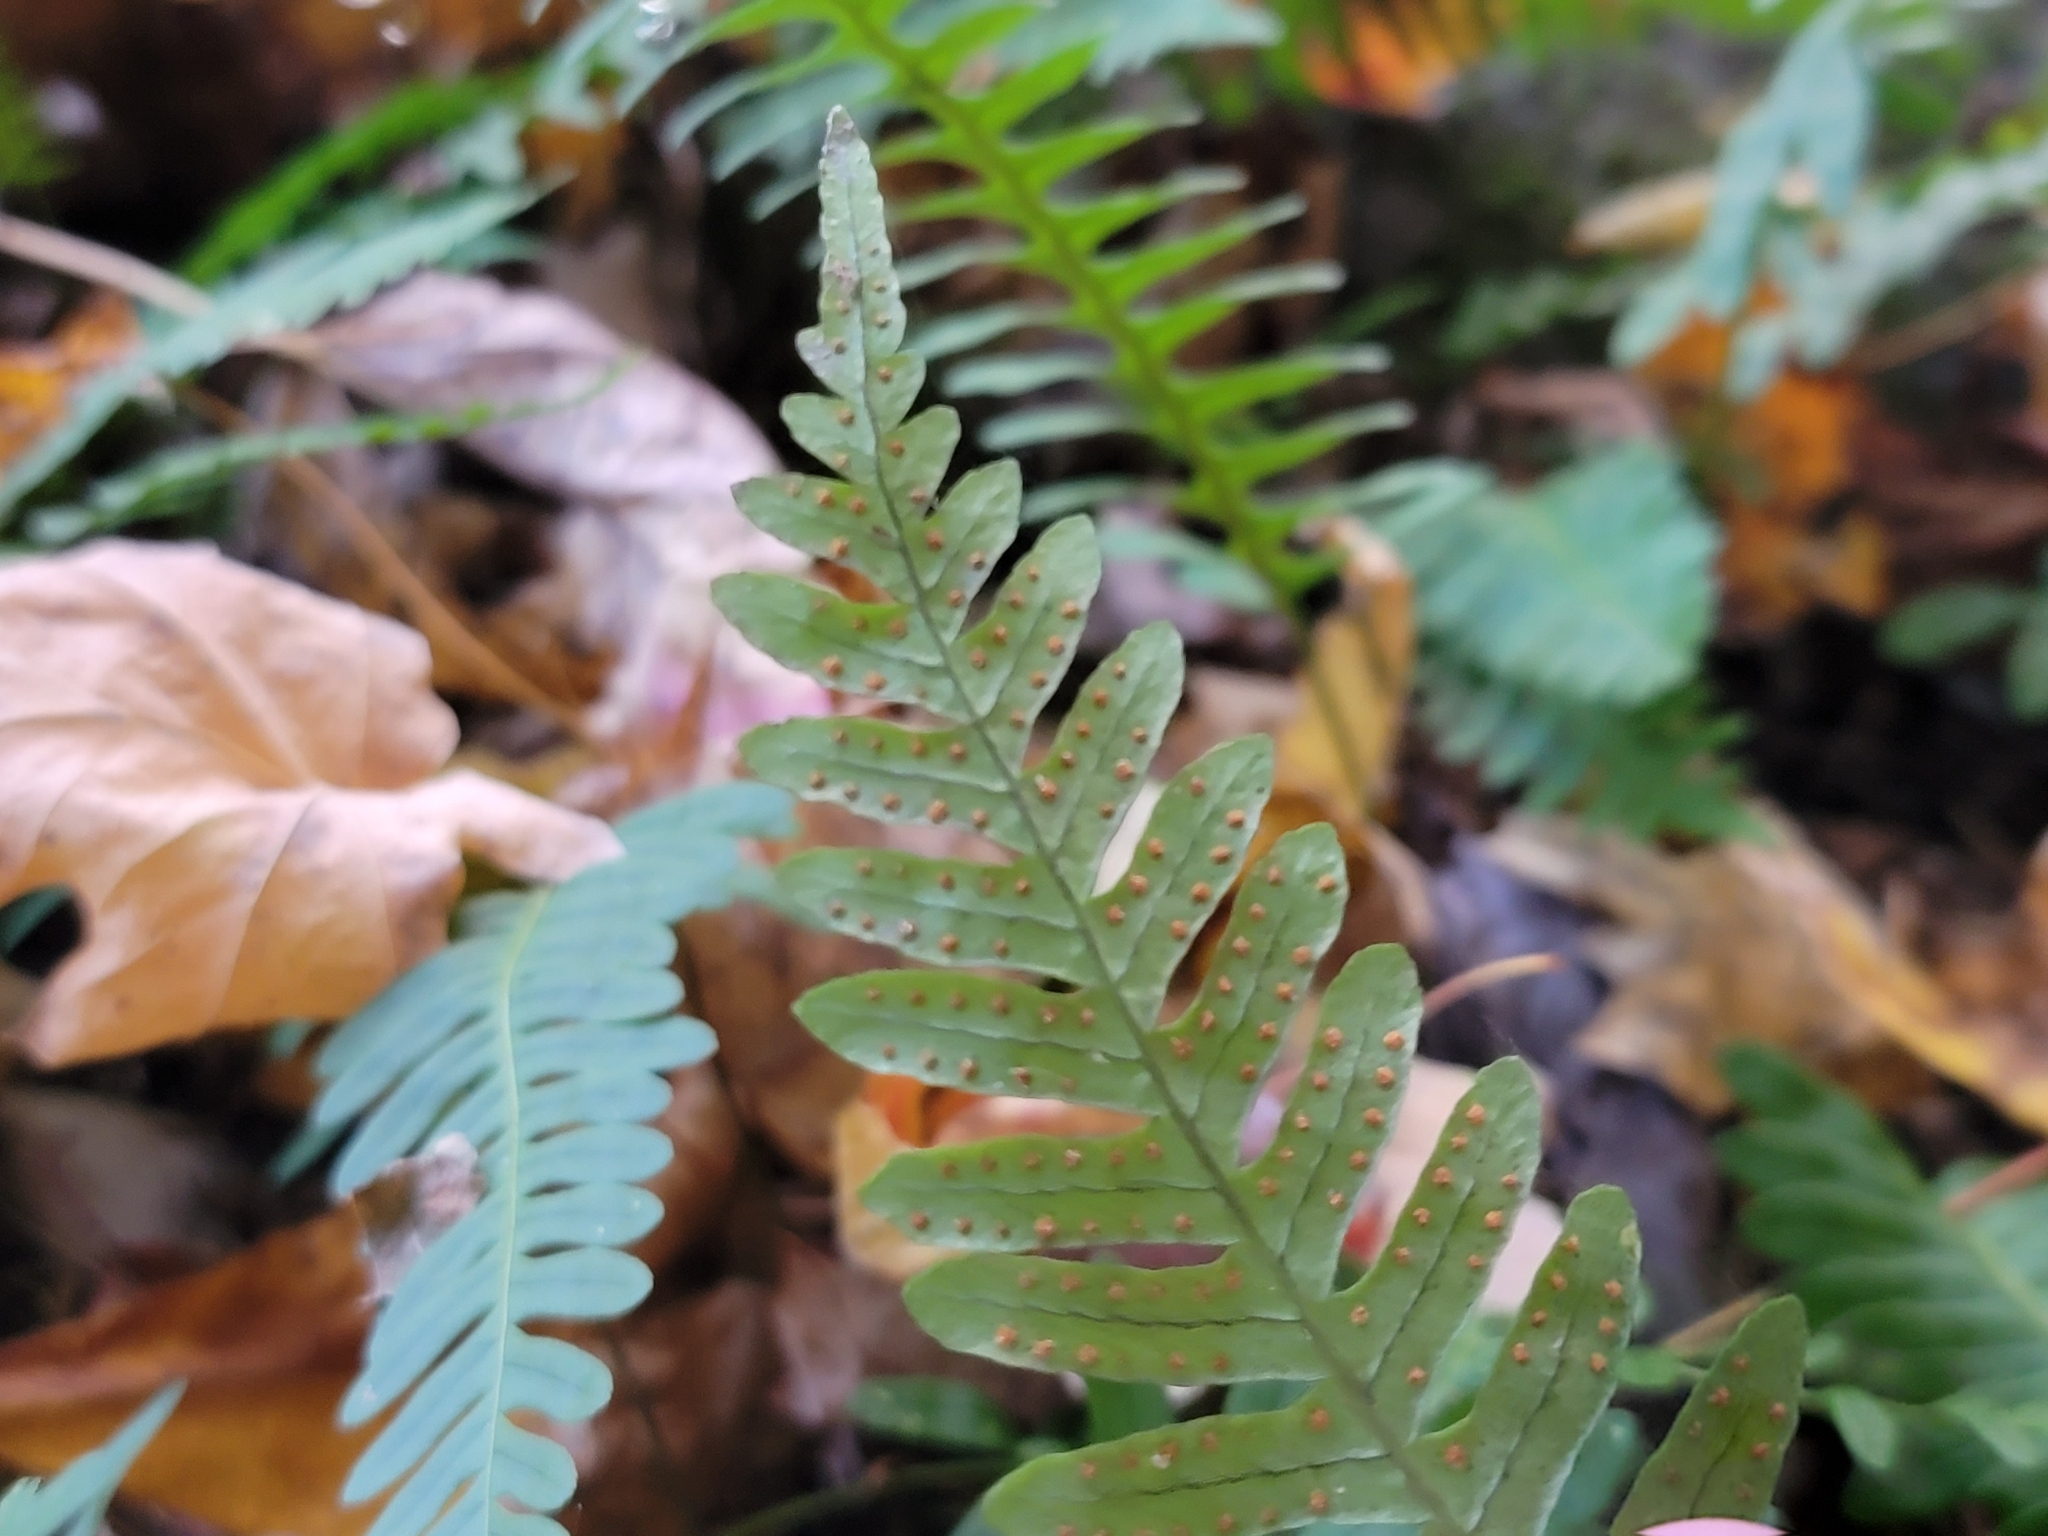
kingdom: Plantae
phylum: Tracheophyta
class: Polypodiopsida
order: Polypodiales
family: Polypodiaceae
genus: Polypodium
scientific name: Polypodium virginianum
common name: American wall fern
